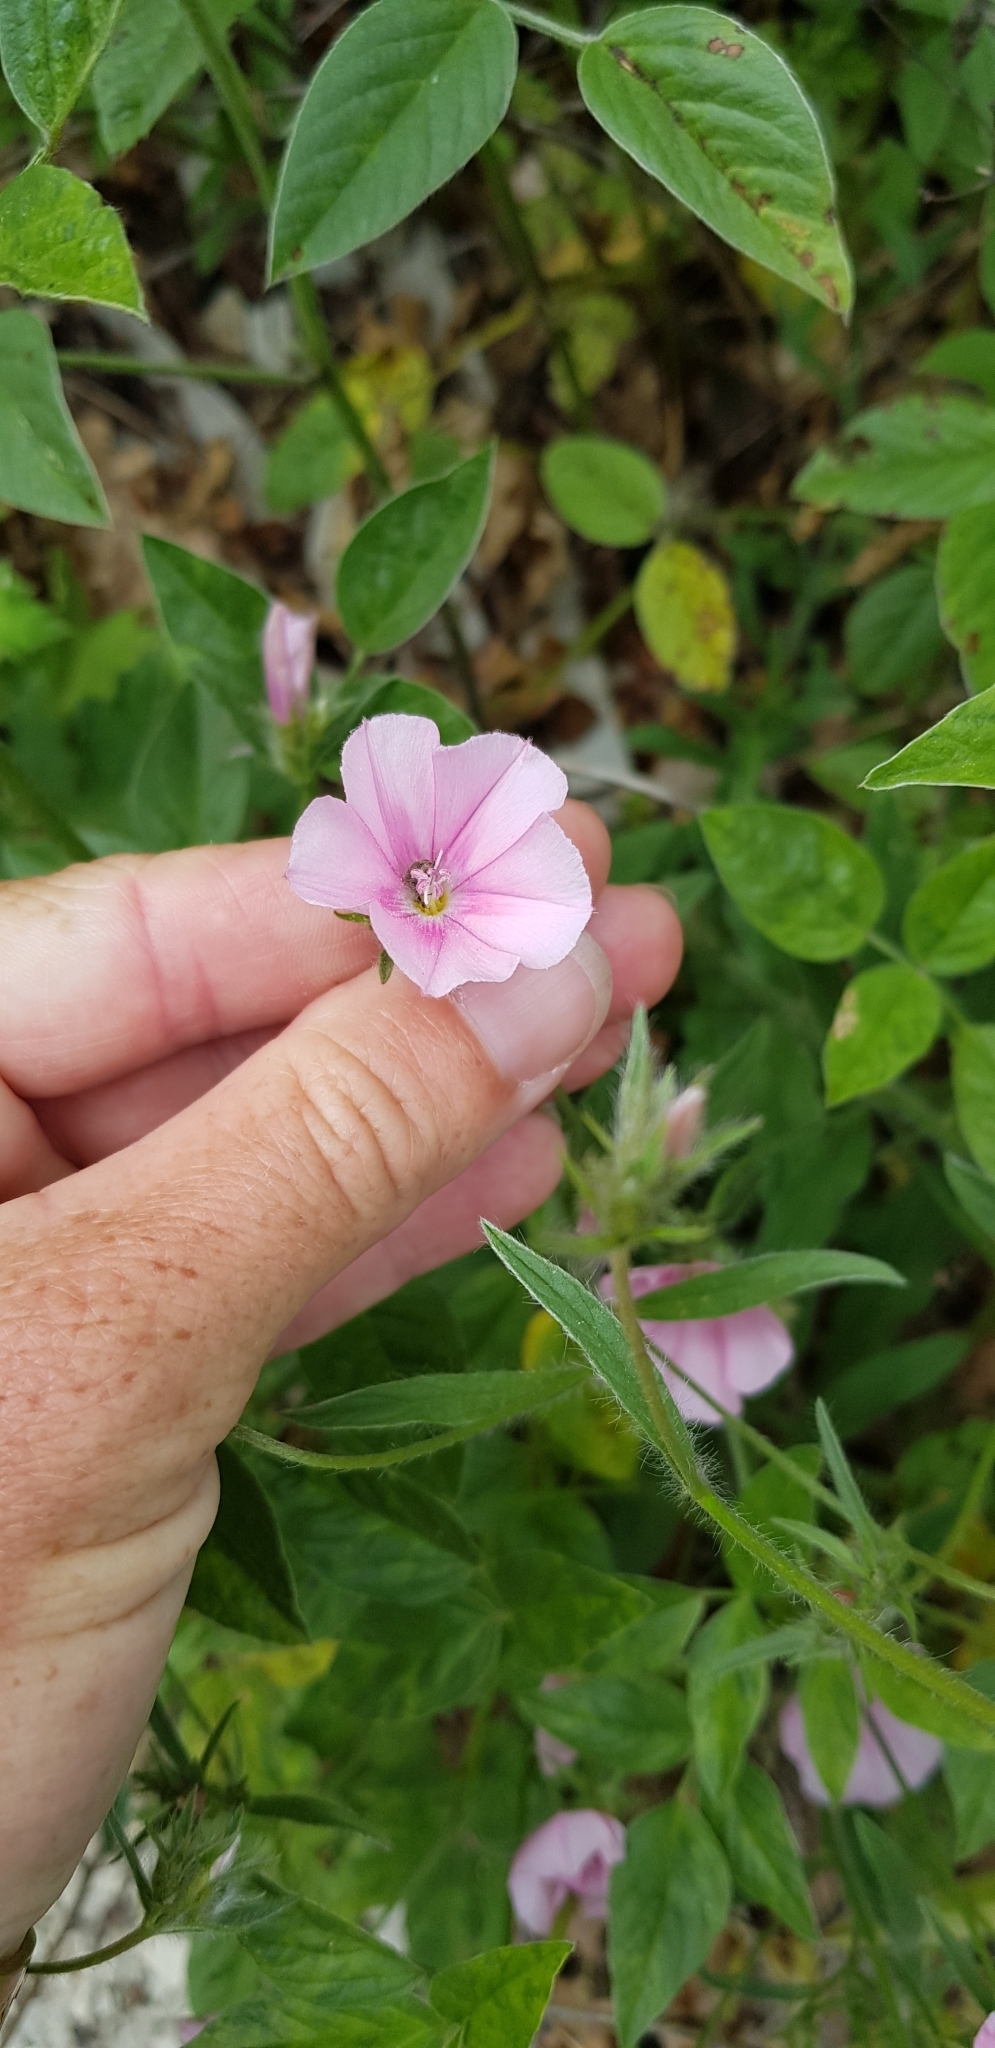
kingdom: Plantae
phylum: Tracheophyta
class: Magnoliopsida
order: Solanales
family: Convolvulaceae
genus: Convolvulus
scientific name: Convolvulus cantabrica
